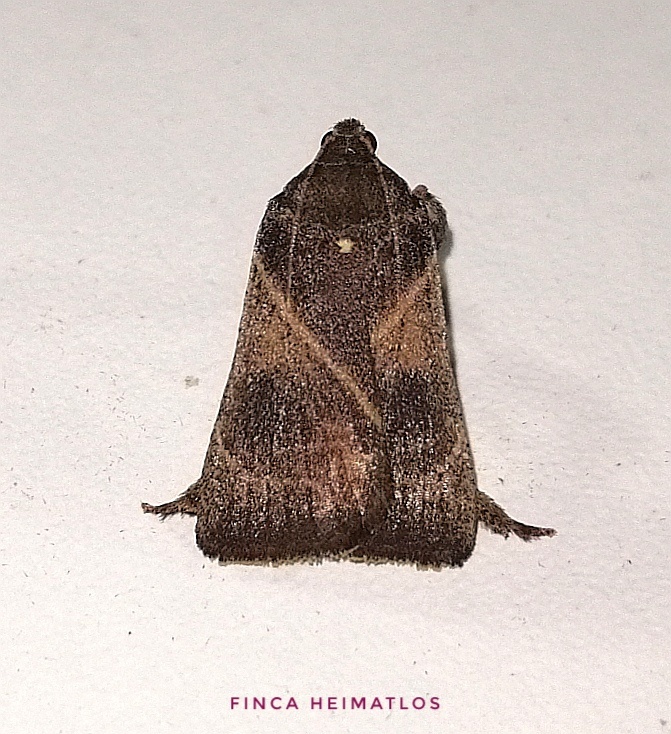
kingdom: Animalia
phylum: Arthropoda
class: Insecta
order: Lepidoptera
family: Pyralidae
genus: Dasycnemia
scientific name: Dasycnemia
